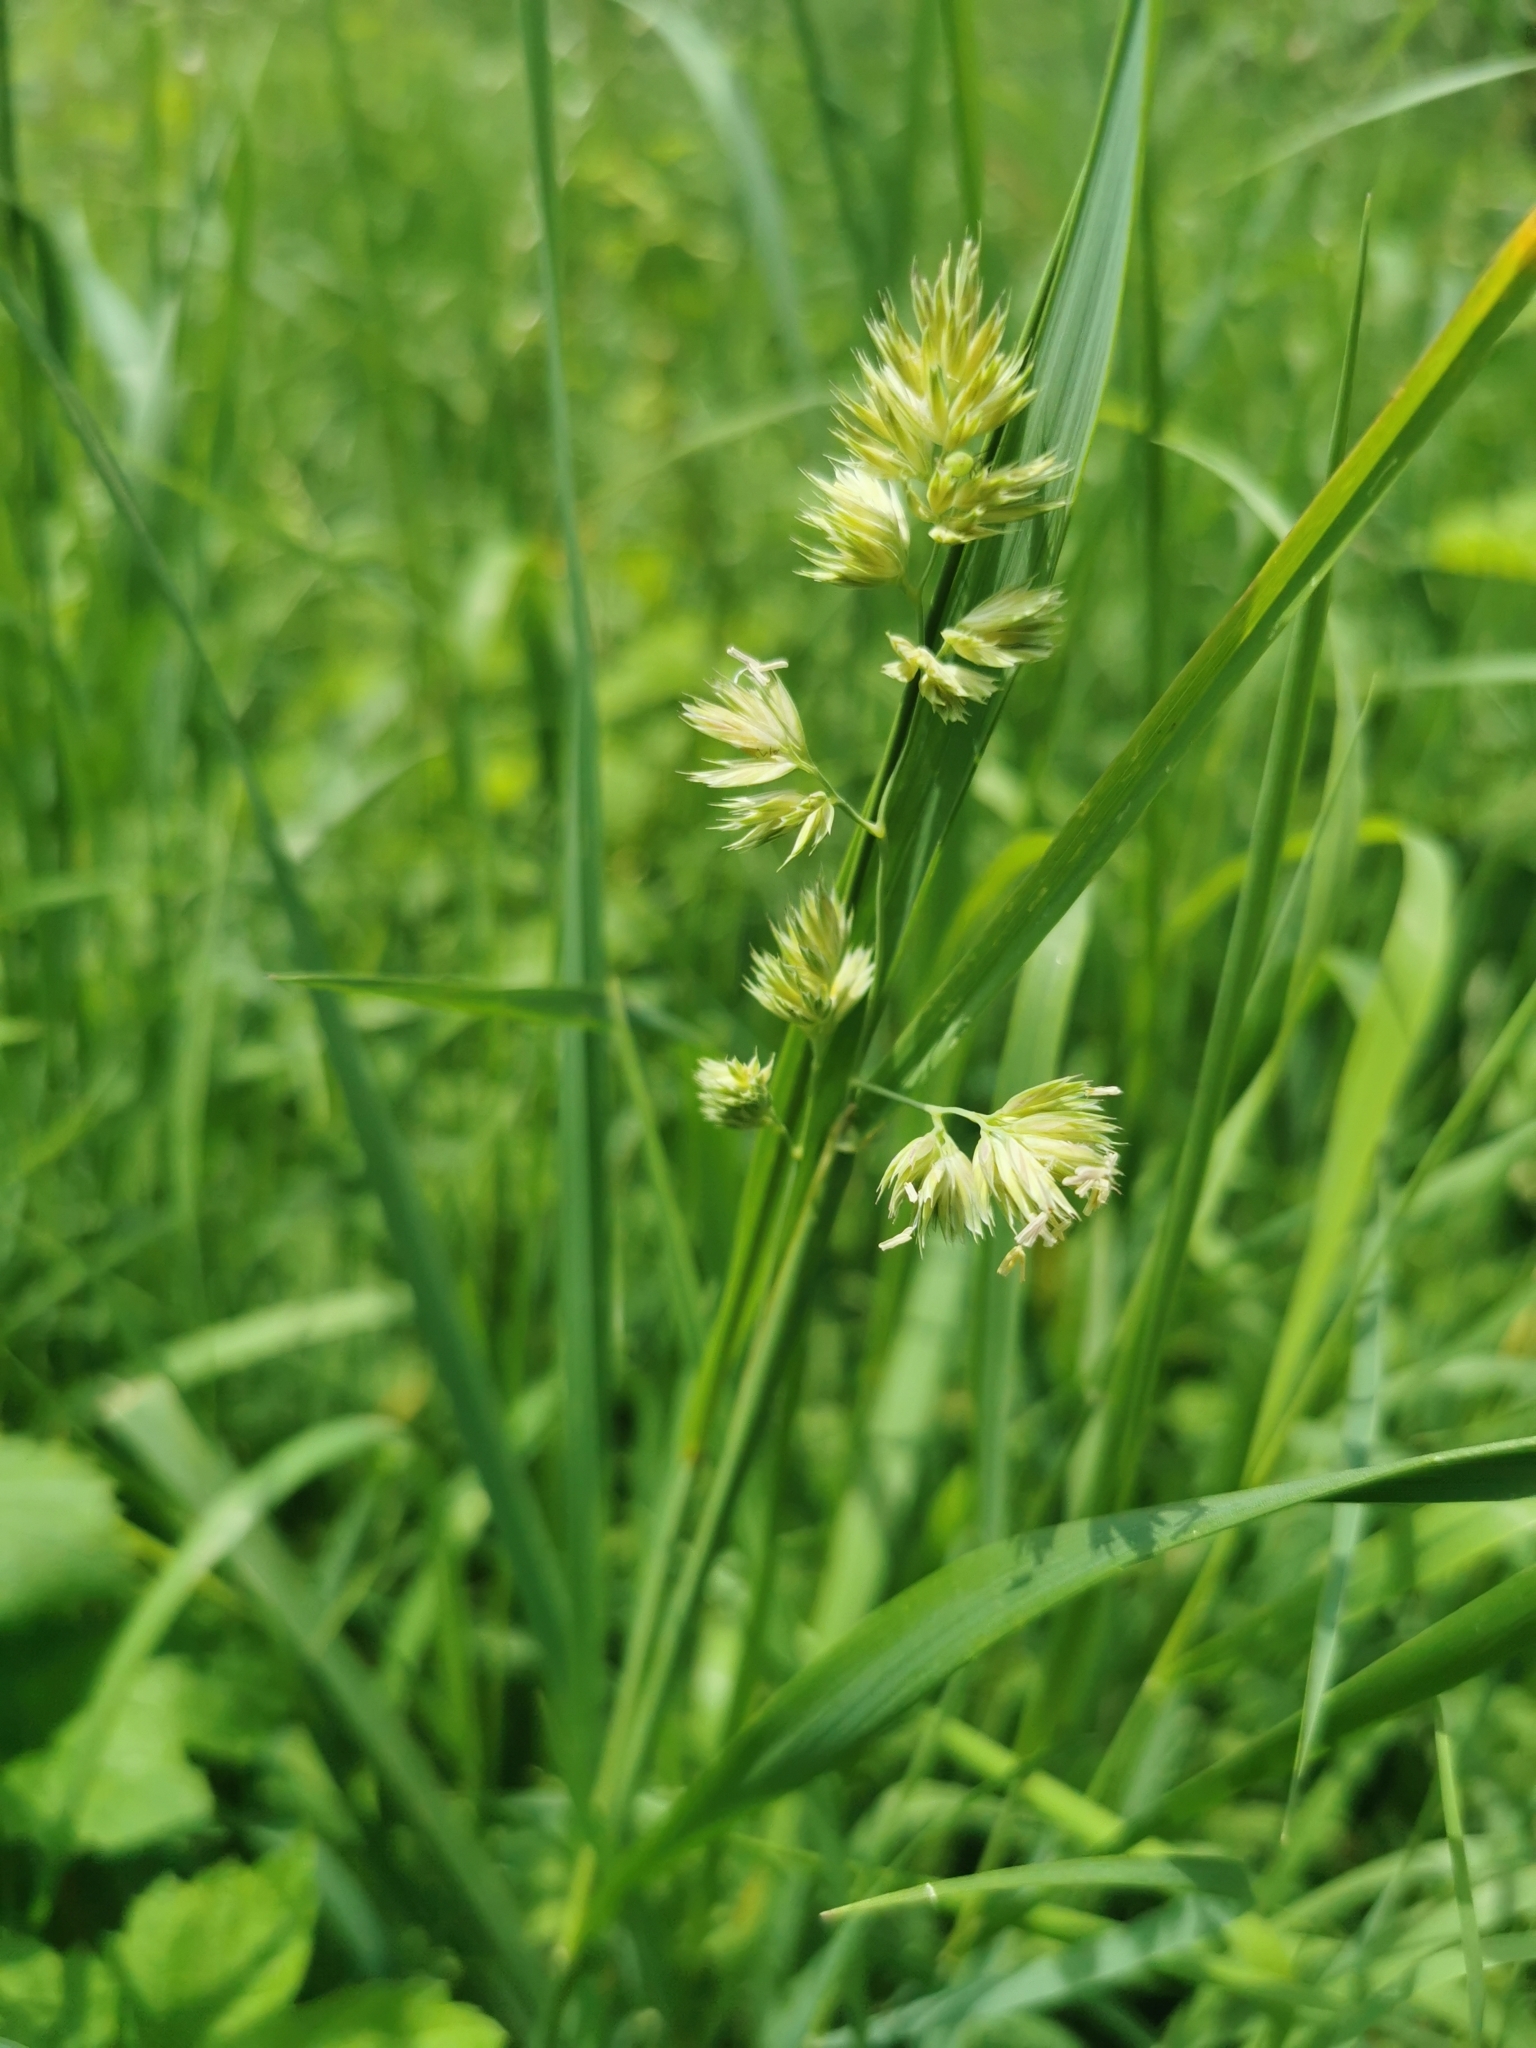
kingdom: Plantae
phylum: Tracheophyta
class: Liliopsida
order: Poales
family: Poaceae
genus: Dactylis
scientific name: Dactylis glomerata
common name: Orchardgrass
